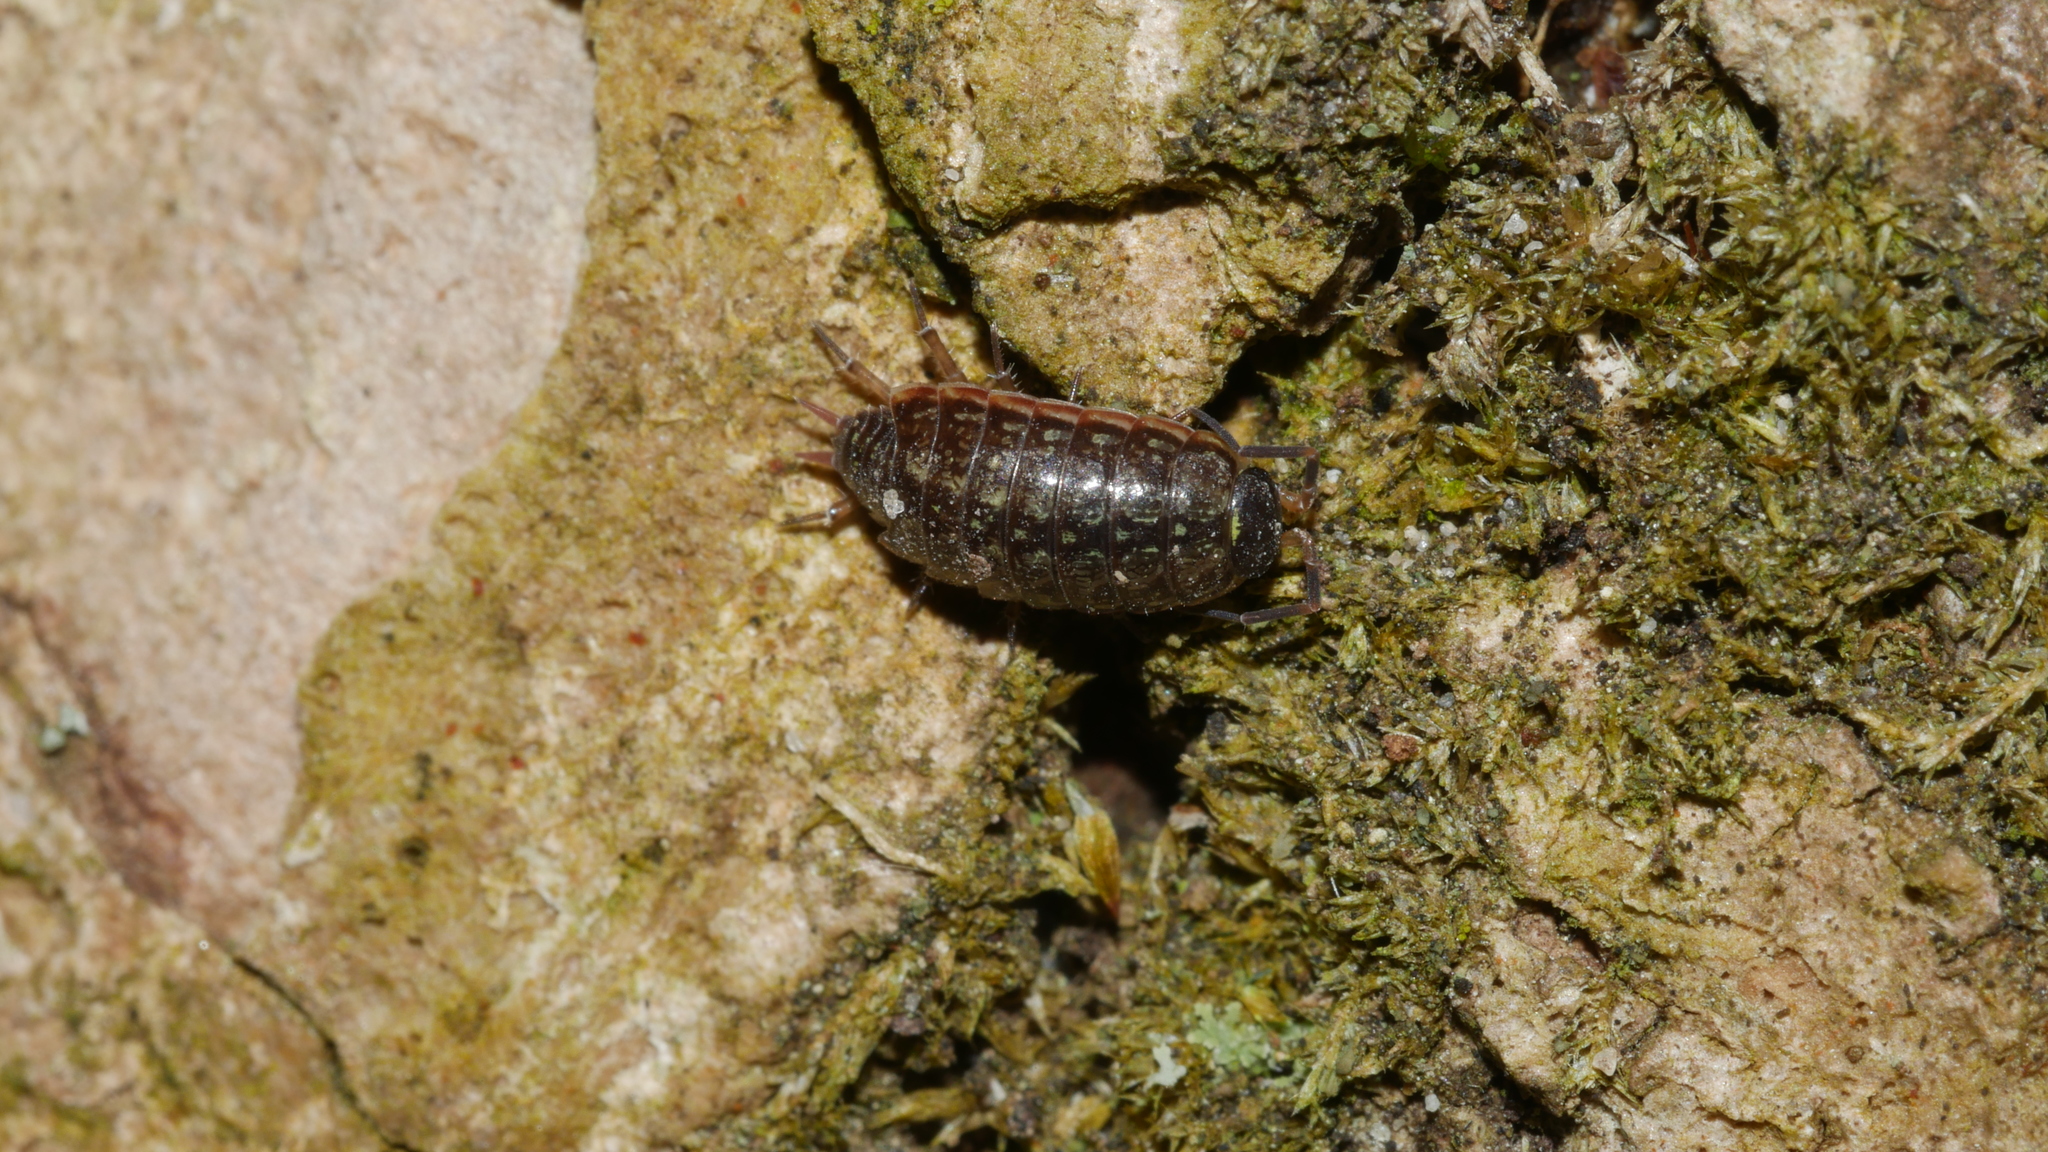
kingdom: Animalia
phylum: Arthropoda
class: Malacostraca
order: Isopoda
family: Philosciidae
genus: Philoscia
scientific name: Philoscia muscorum
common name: Common striped woodlouse
